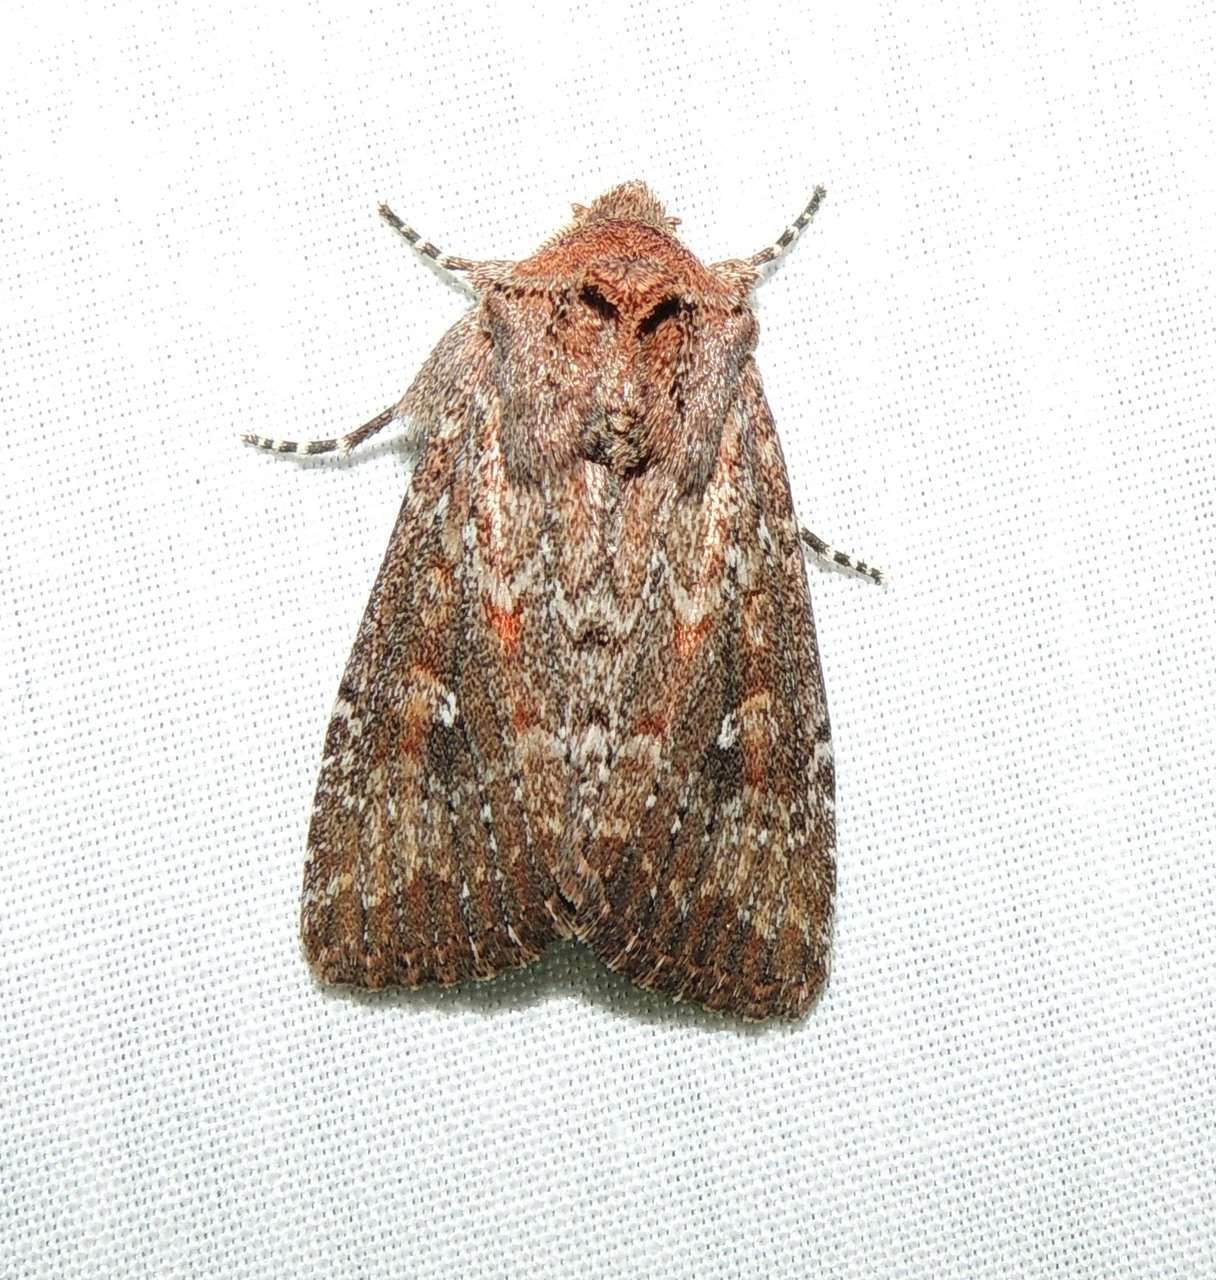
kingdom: Animalia
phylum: Arthropoda
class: Insecta
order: Lepidoptera
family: Noctuidae
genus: Dasygaster
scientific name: Dasygaster padockina
